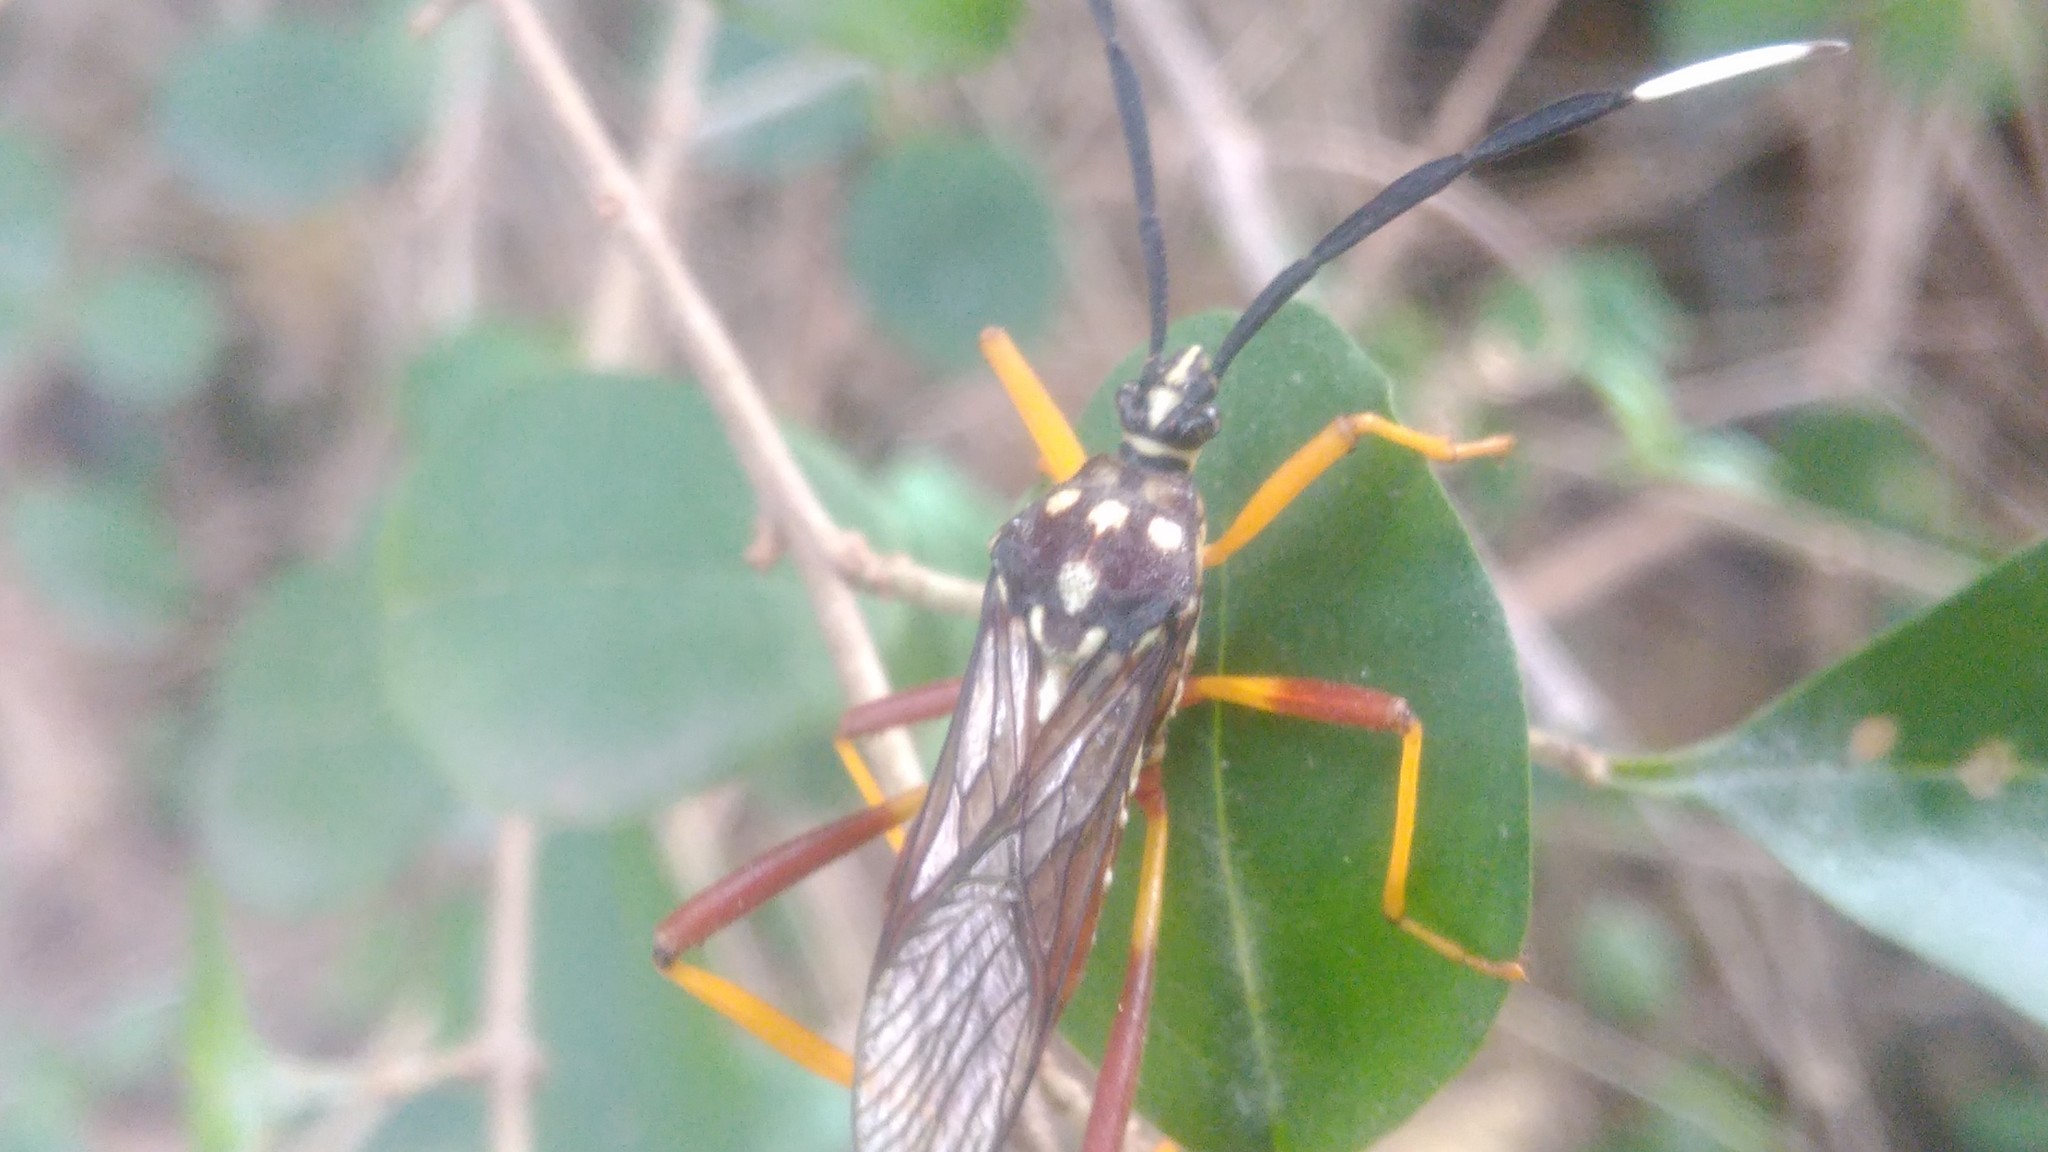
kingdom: Animalia
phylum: Arthropoda
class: Insecta
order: Hemiptera
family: Coreidae
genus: Holhymenia
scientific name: Holhymenia histrio
